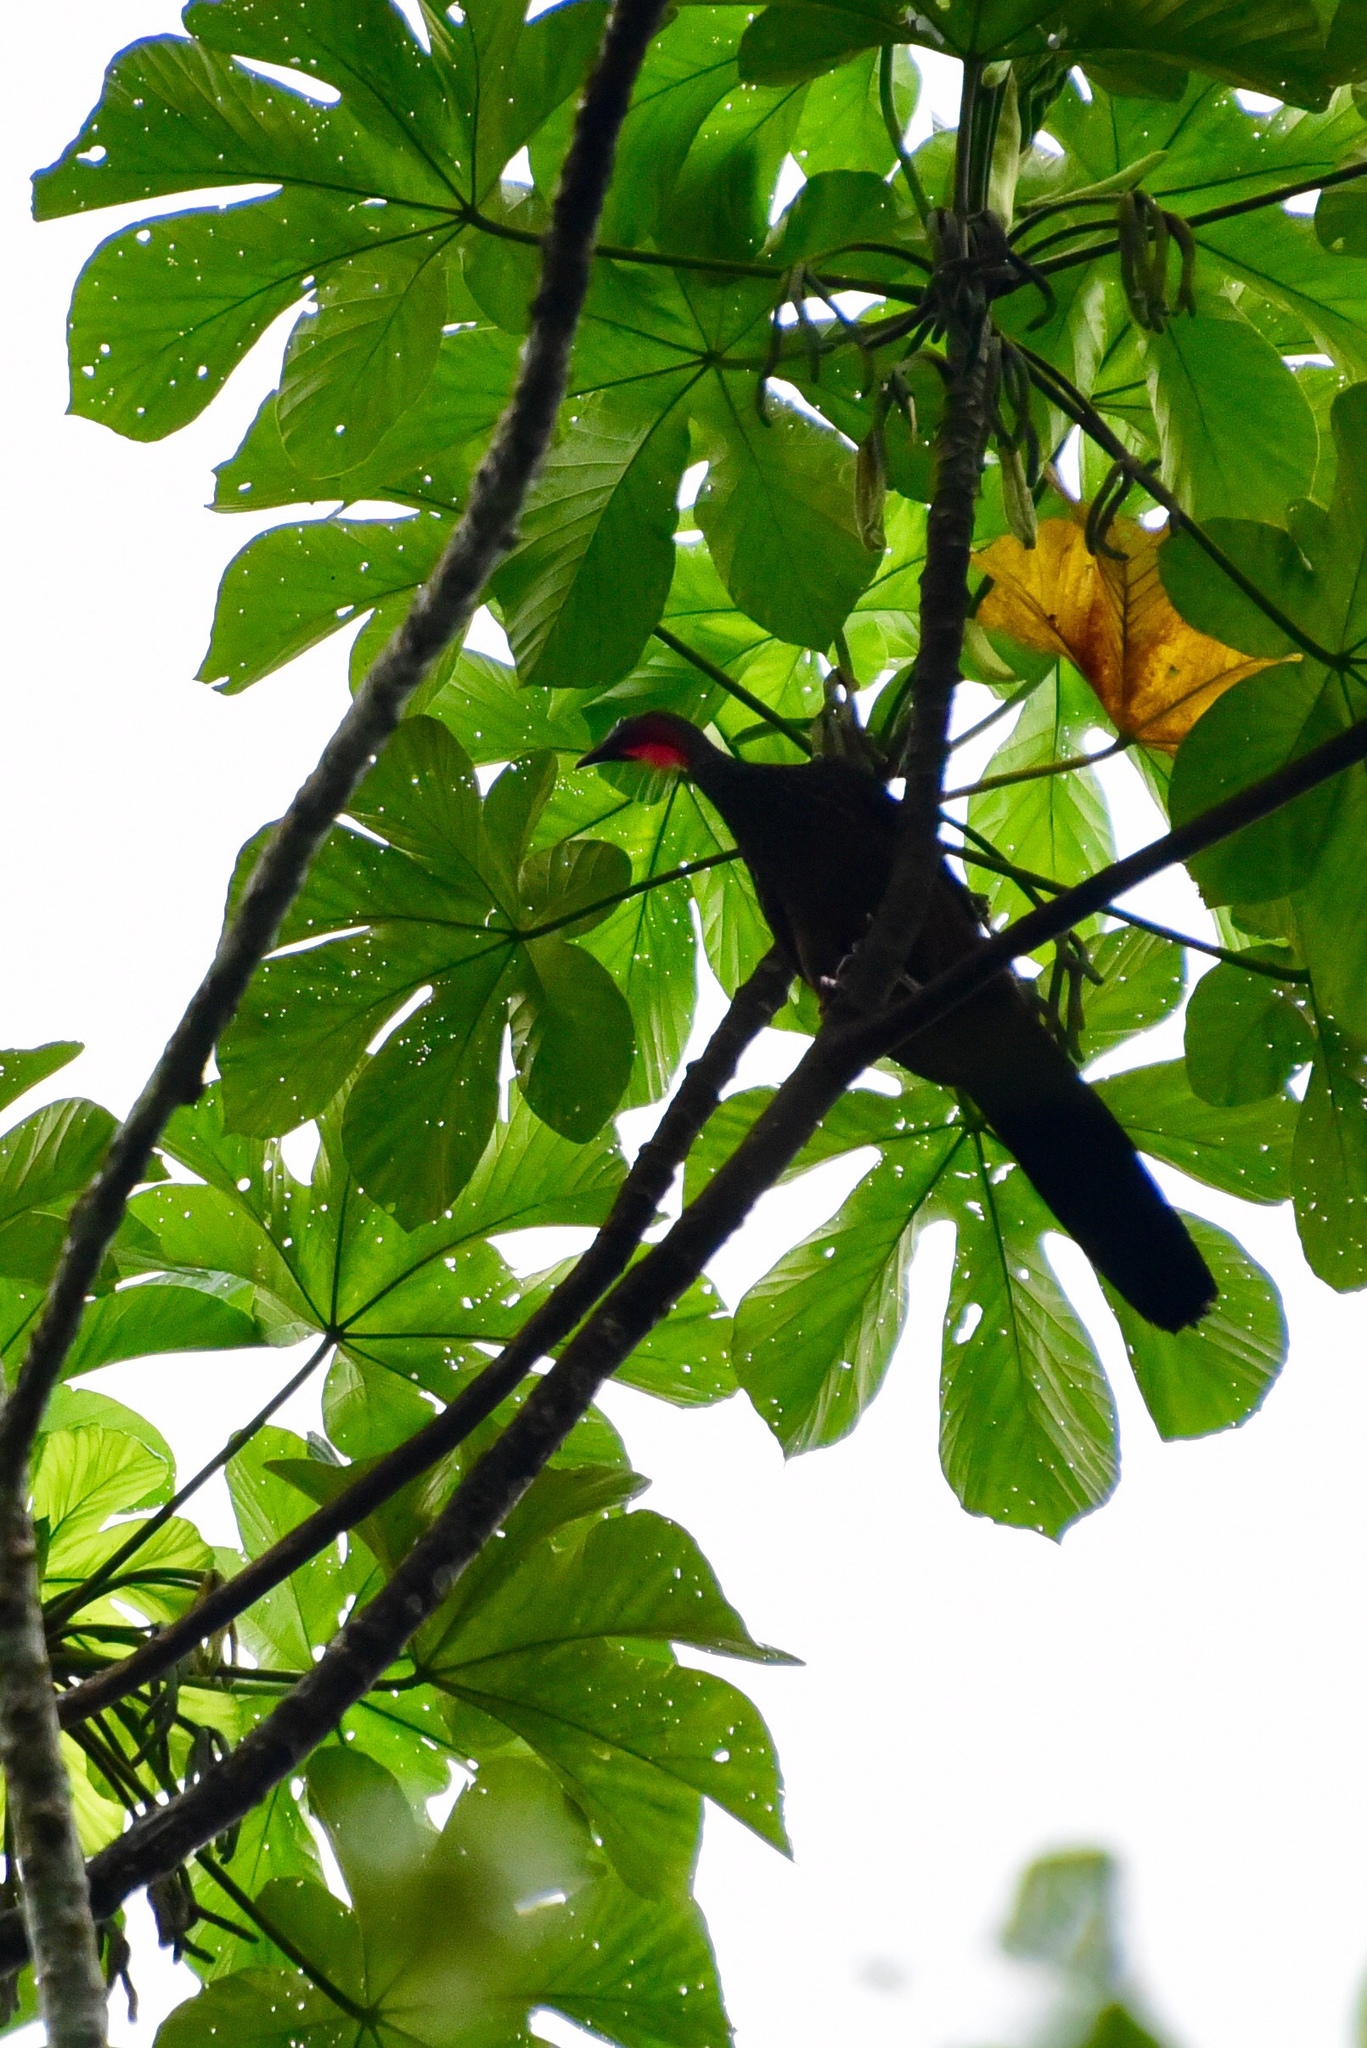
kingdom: Animalia
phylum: Chordata
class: Aves
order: Galliformes
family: Cracidae
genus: Penelope
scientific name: Penelope jacquacu
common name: Spix's guan
